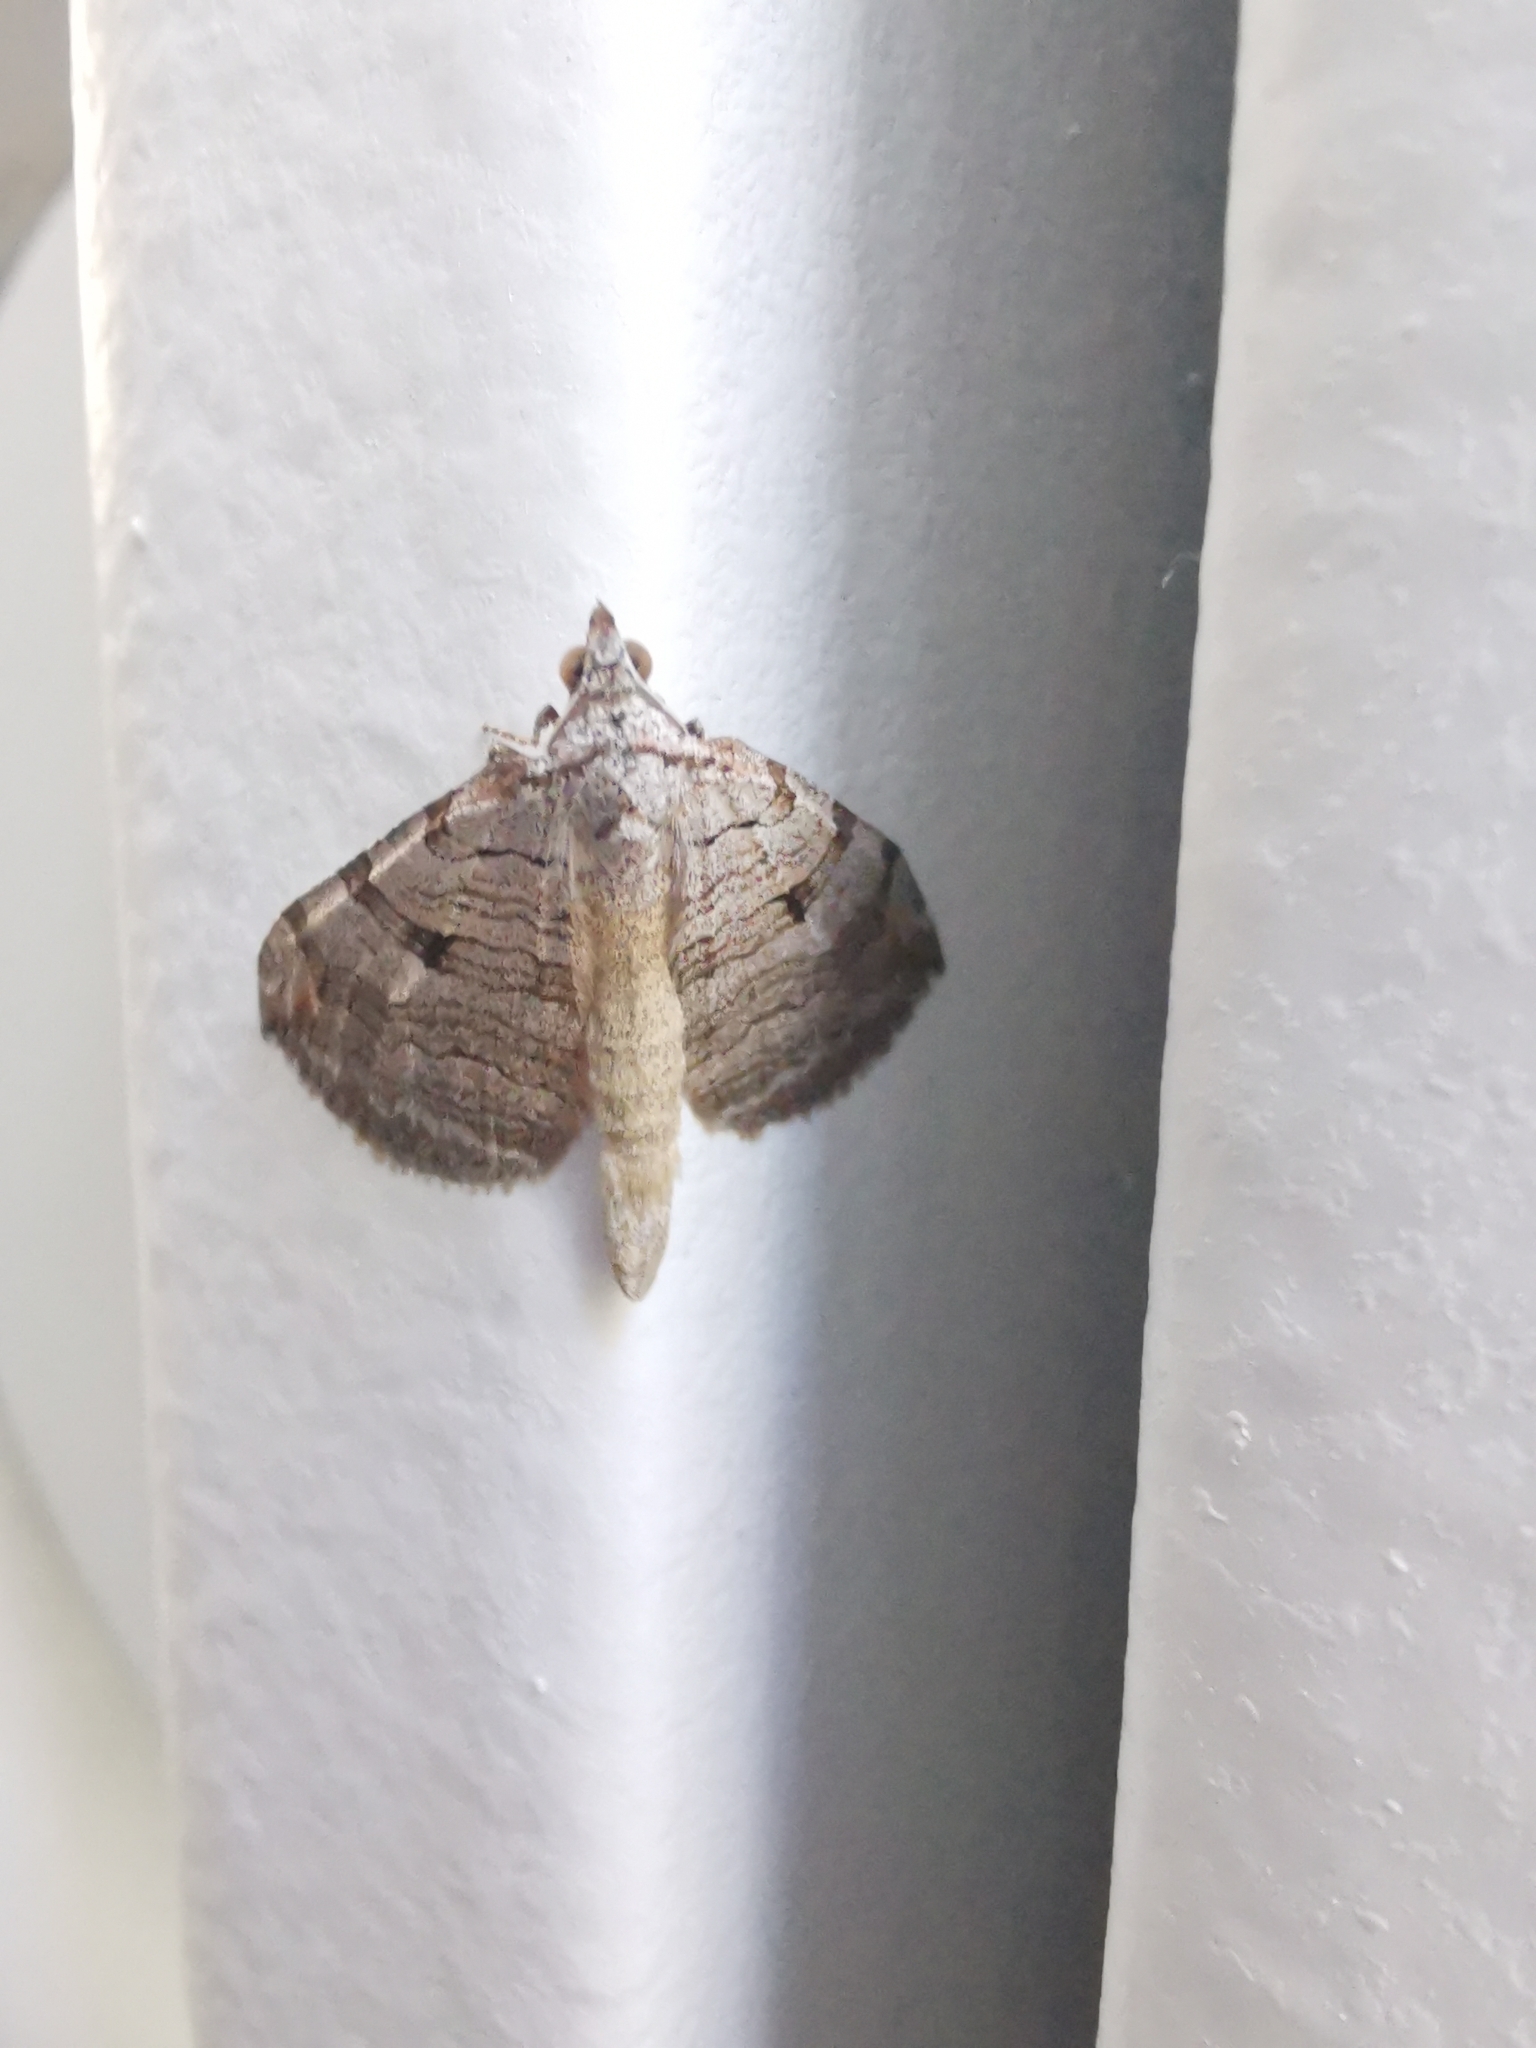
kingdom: Animalia
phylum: Arthropoda
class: Insecta
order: Lepidoptera
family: Geometridae
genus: Aplocera
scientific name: Aplocera plagiata
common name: Treble-bar
